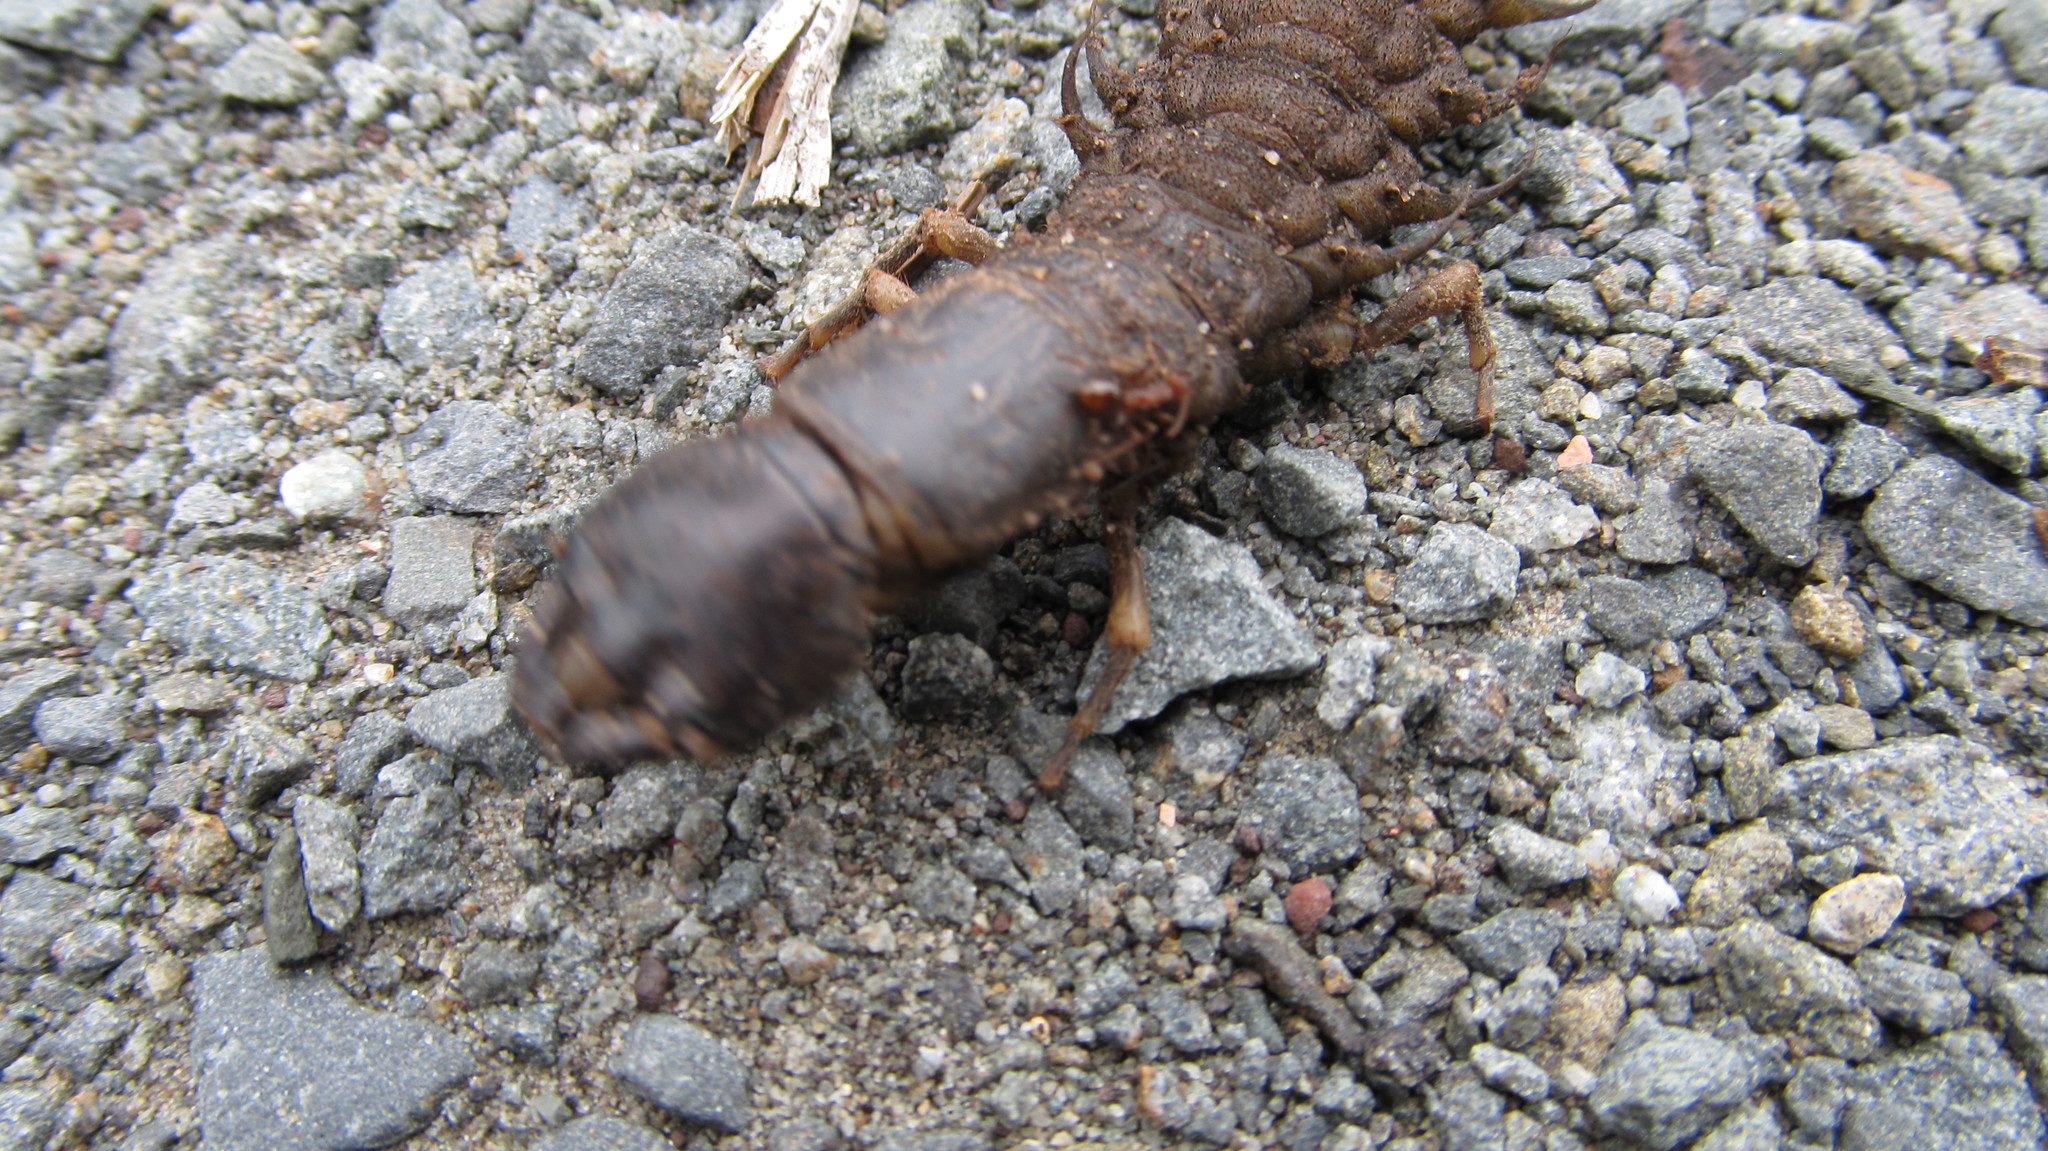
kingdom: Animalia
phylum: Arthropoda
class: Insecta
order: Megaloptera
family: Corydalidae
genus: Corydalus
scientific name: Corydalus cornutus
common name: Dobsonfly
